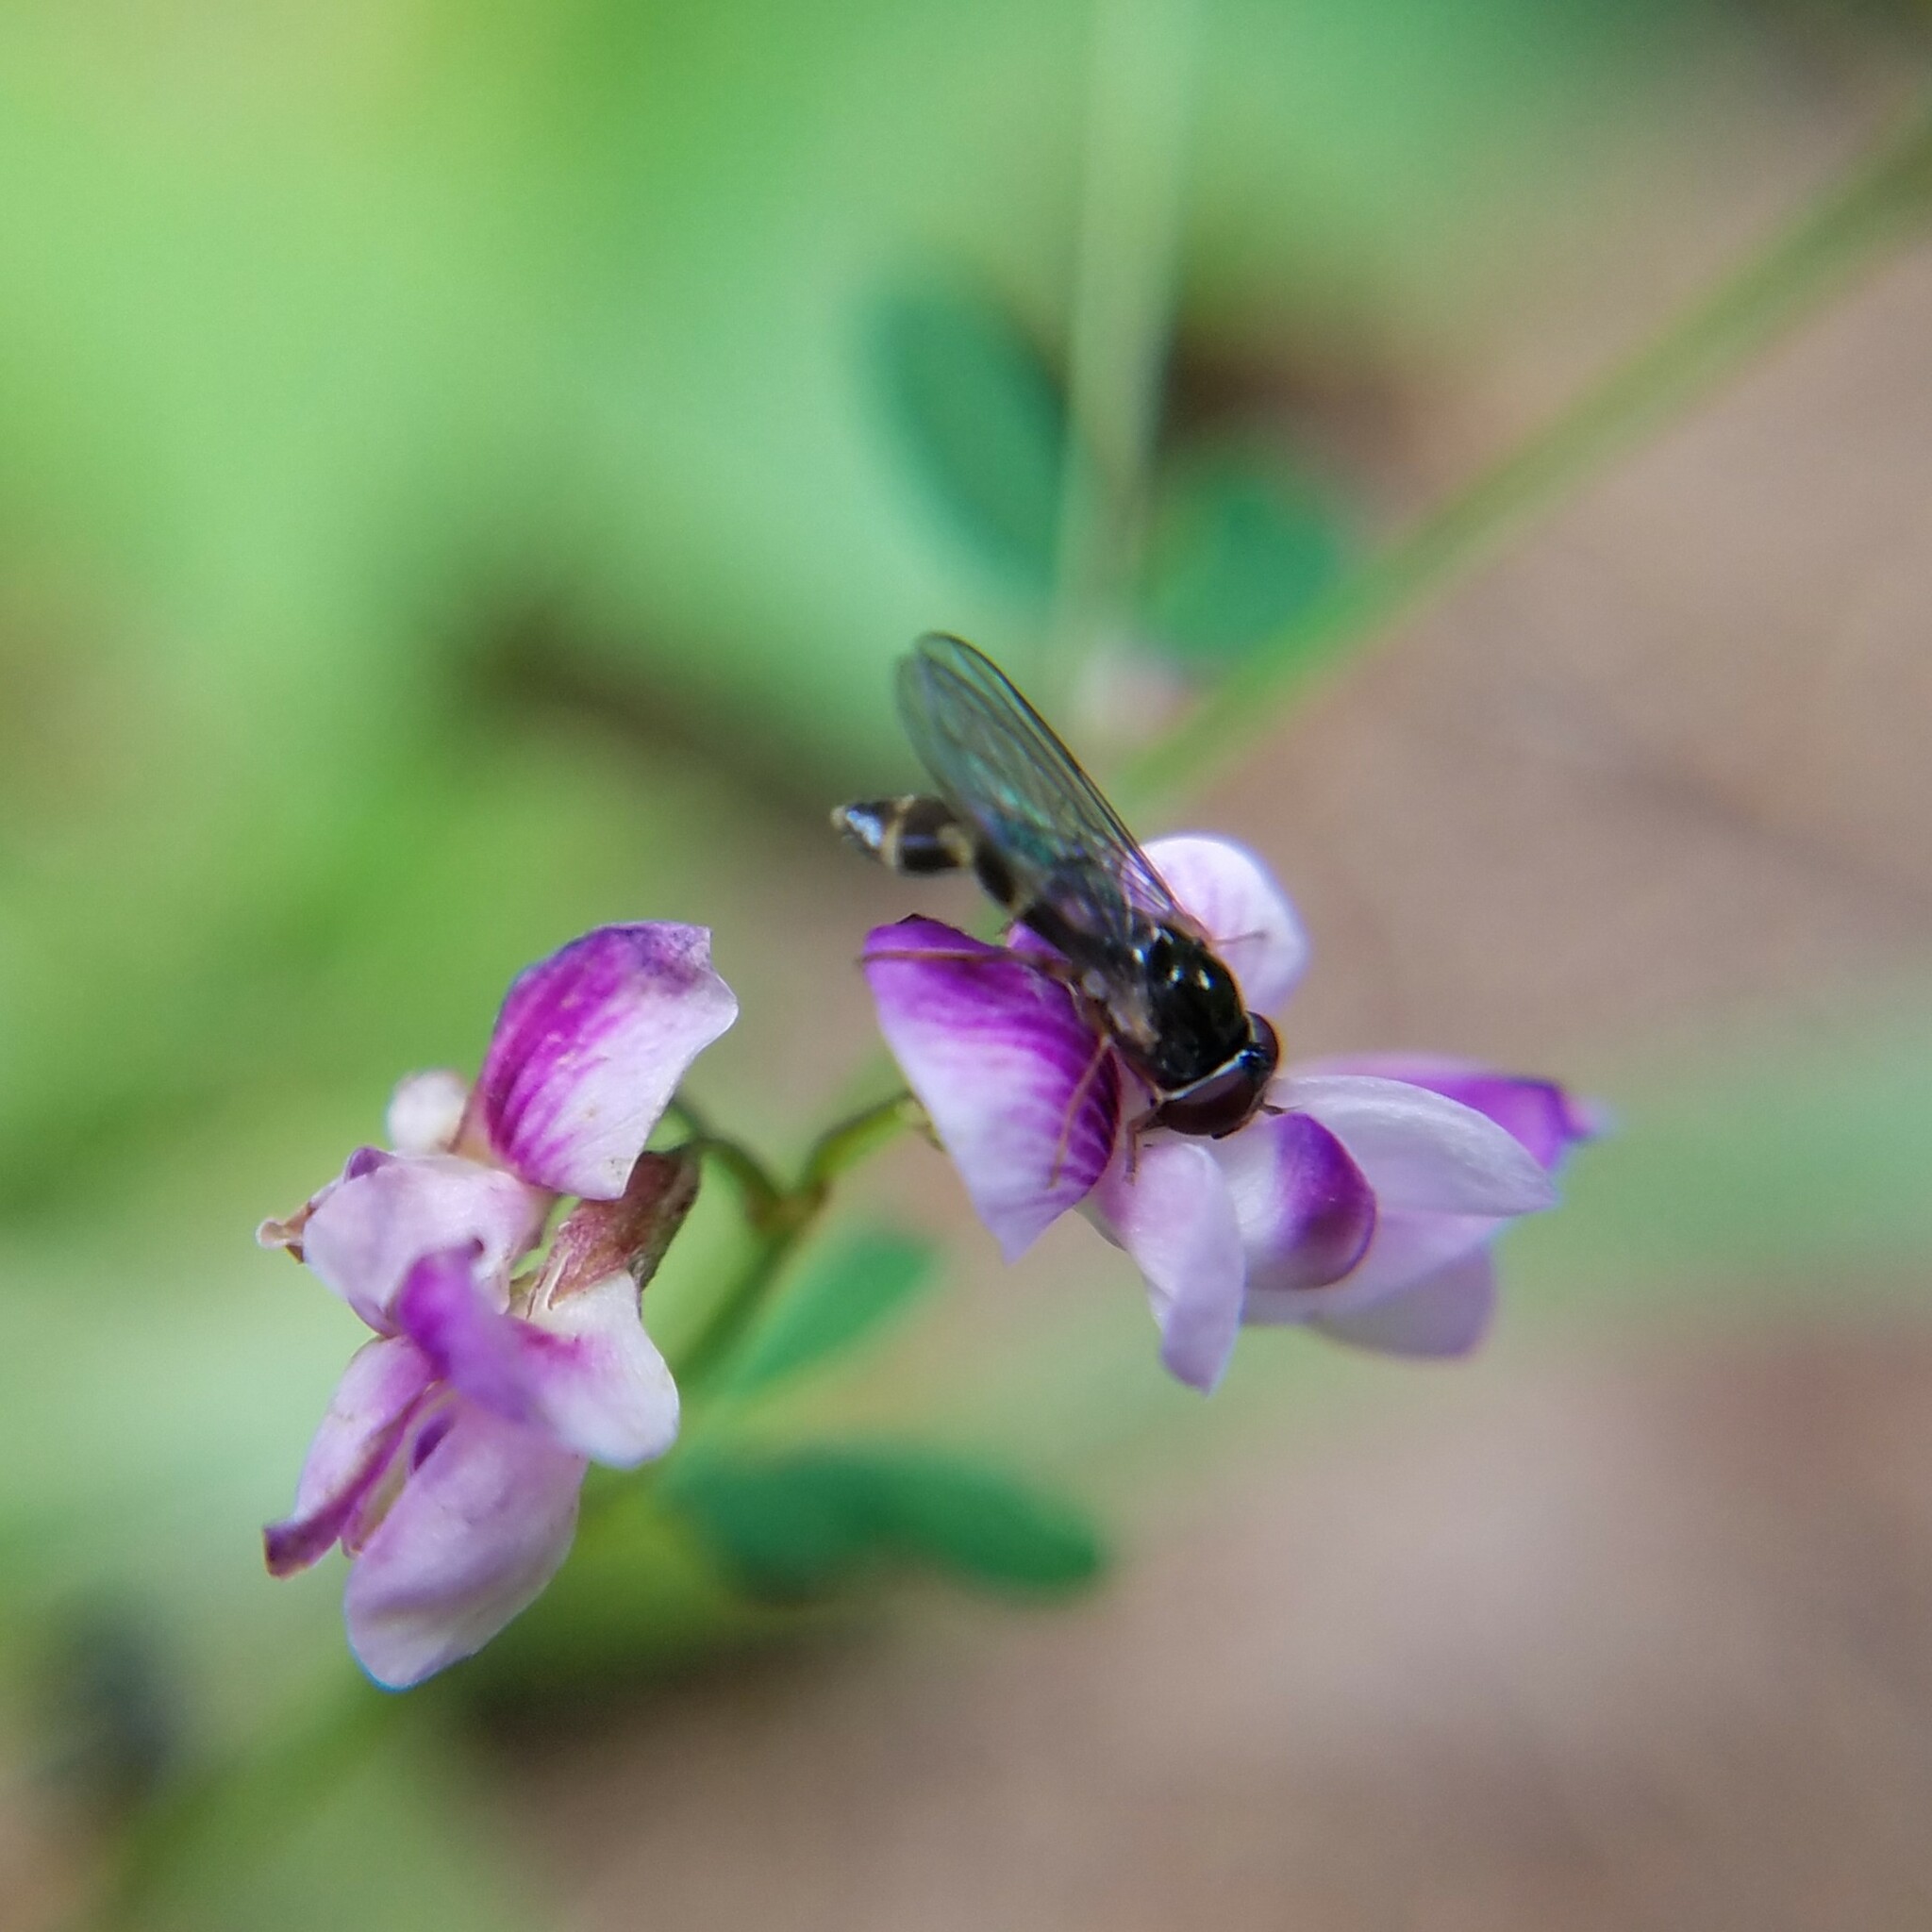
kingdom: Animalia
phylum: Arthropoda
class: Insecta
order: Diptera
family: Syrphidae
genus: Melanostoma
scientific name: Melanostoma mellina
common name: Hover fly
